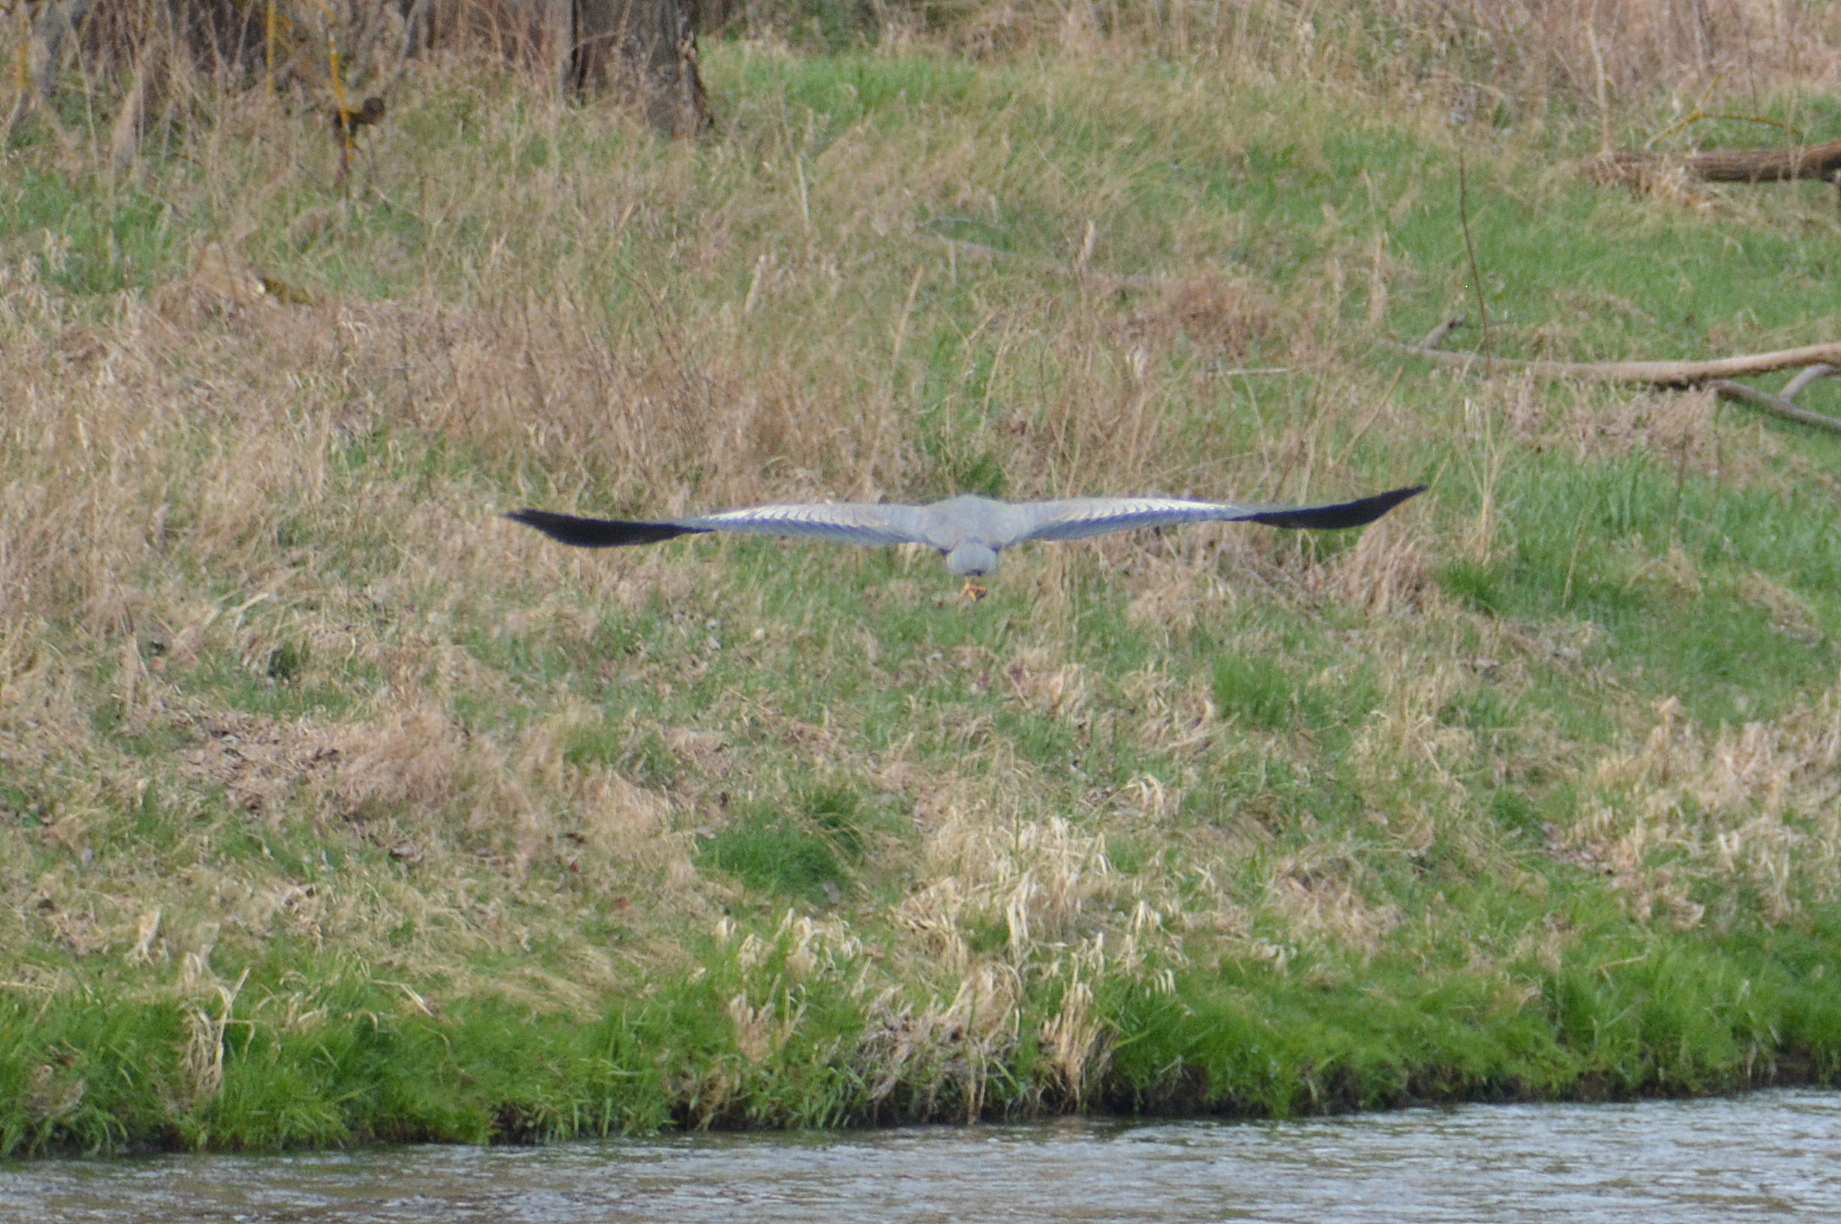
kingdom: Animalia
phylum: Chordata
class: Aves
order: Pelecaniformes
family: Ardeidae
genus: Ardea
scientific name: Ardea cinerea
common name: Grey heron
